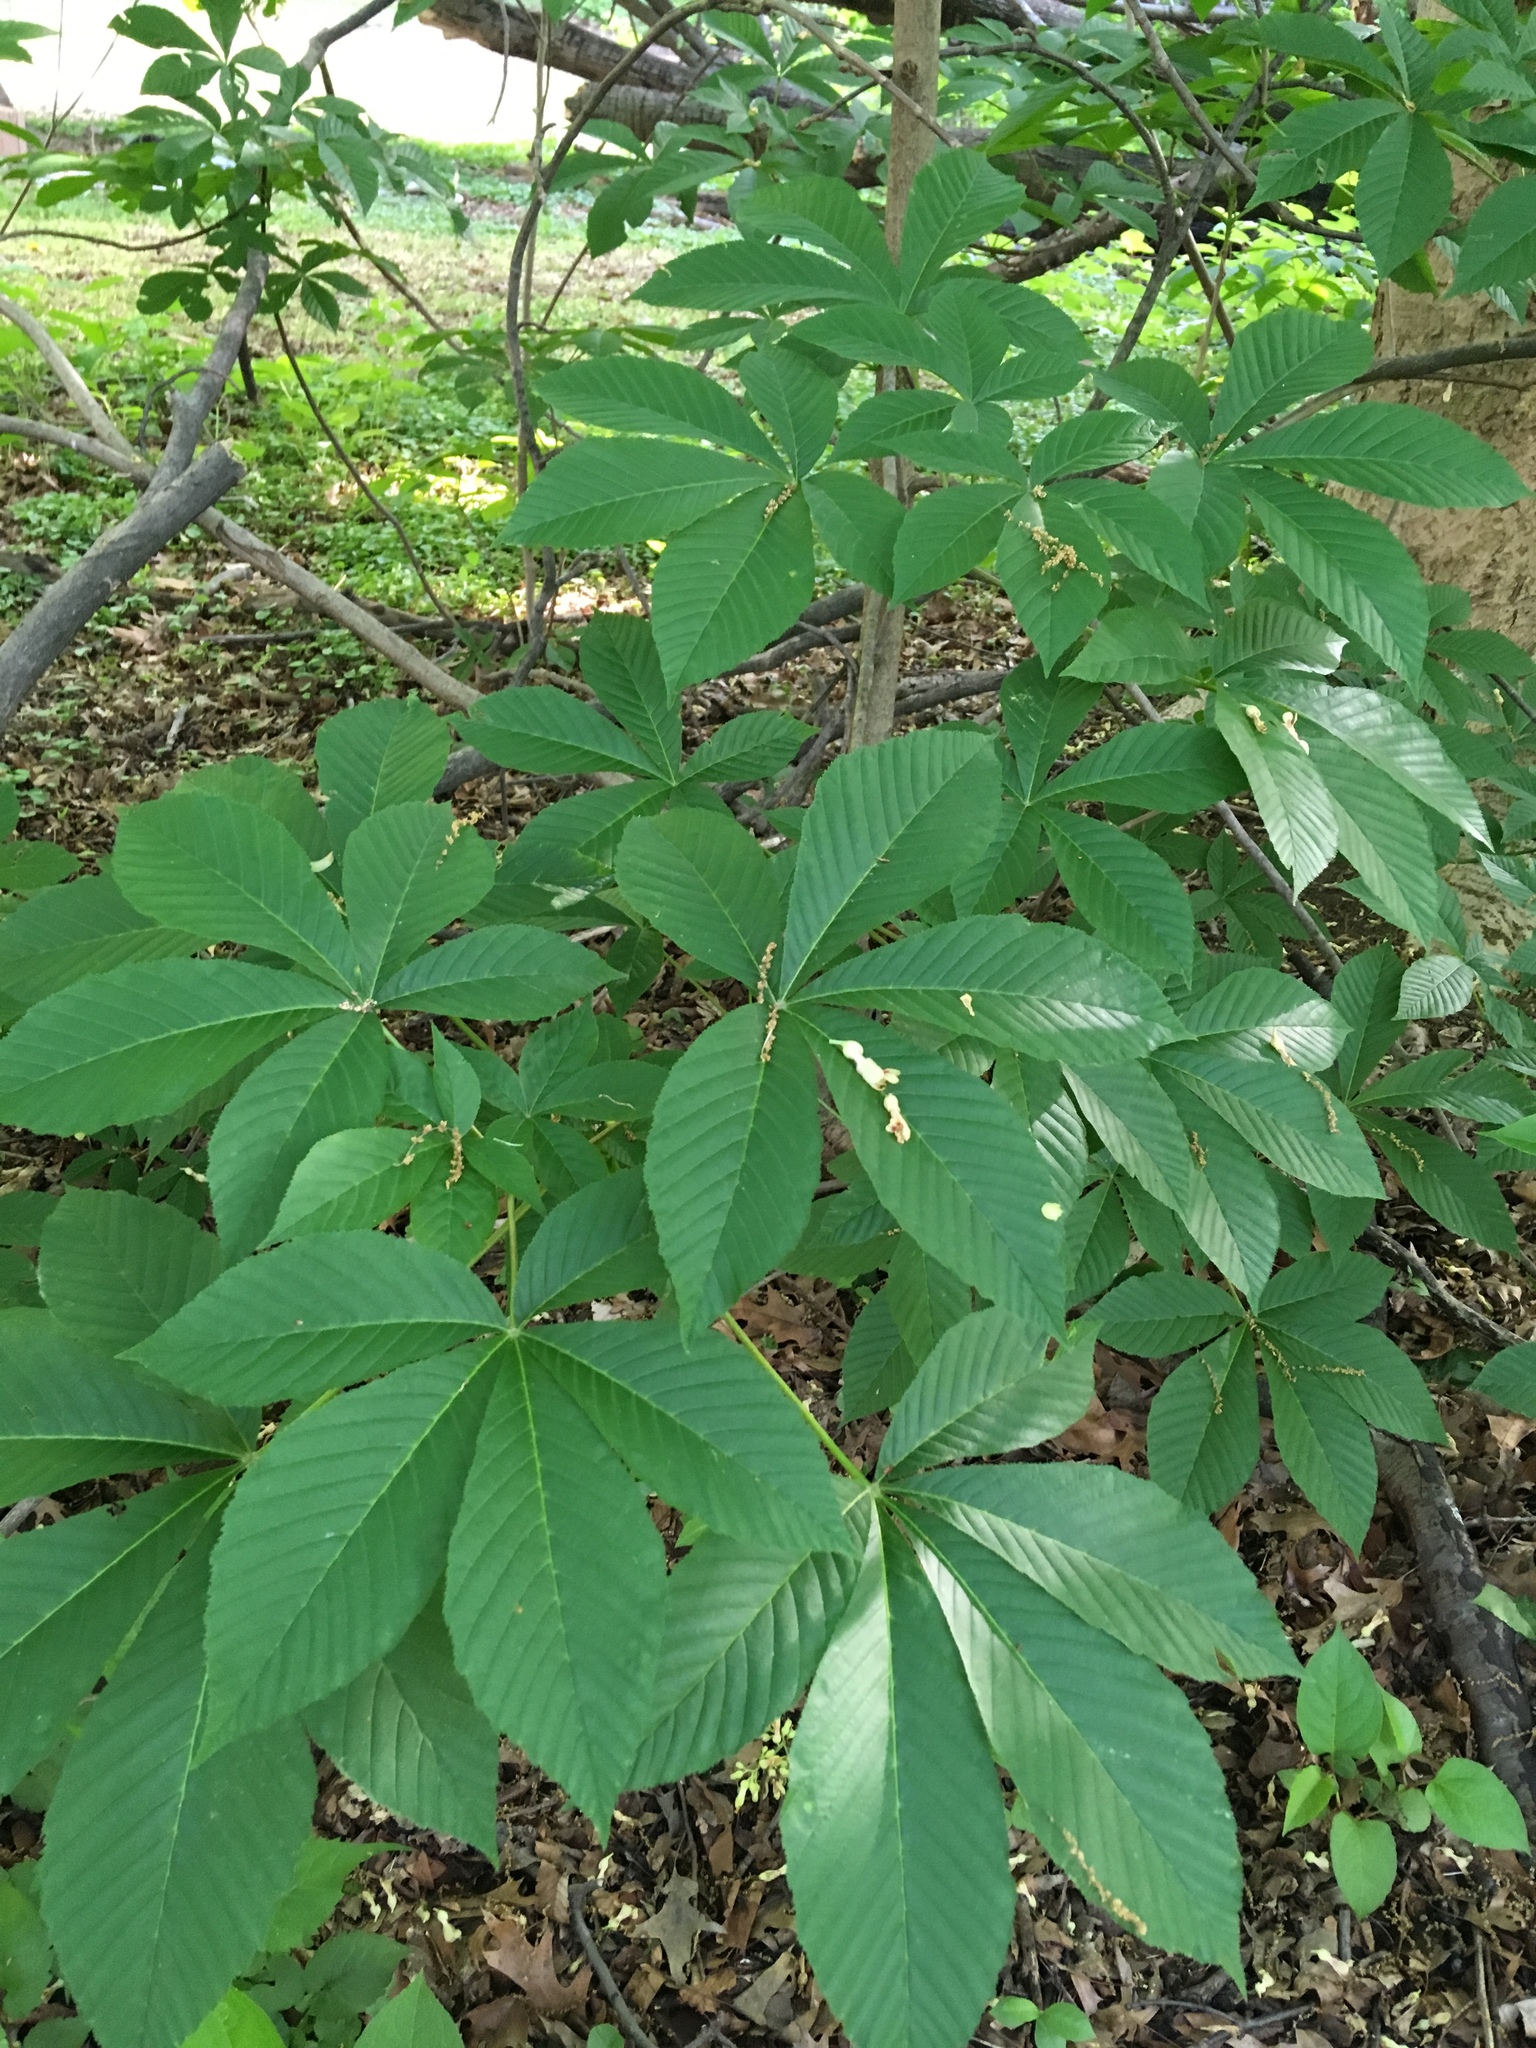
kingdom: Plantae
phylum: Tracheophyta
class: Magnoliopsida
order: Sapindales
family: Sapindaceae
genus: Aesculus
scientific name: Aesculus flava
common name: Yellow buckeye
